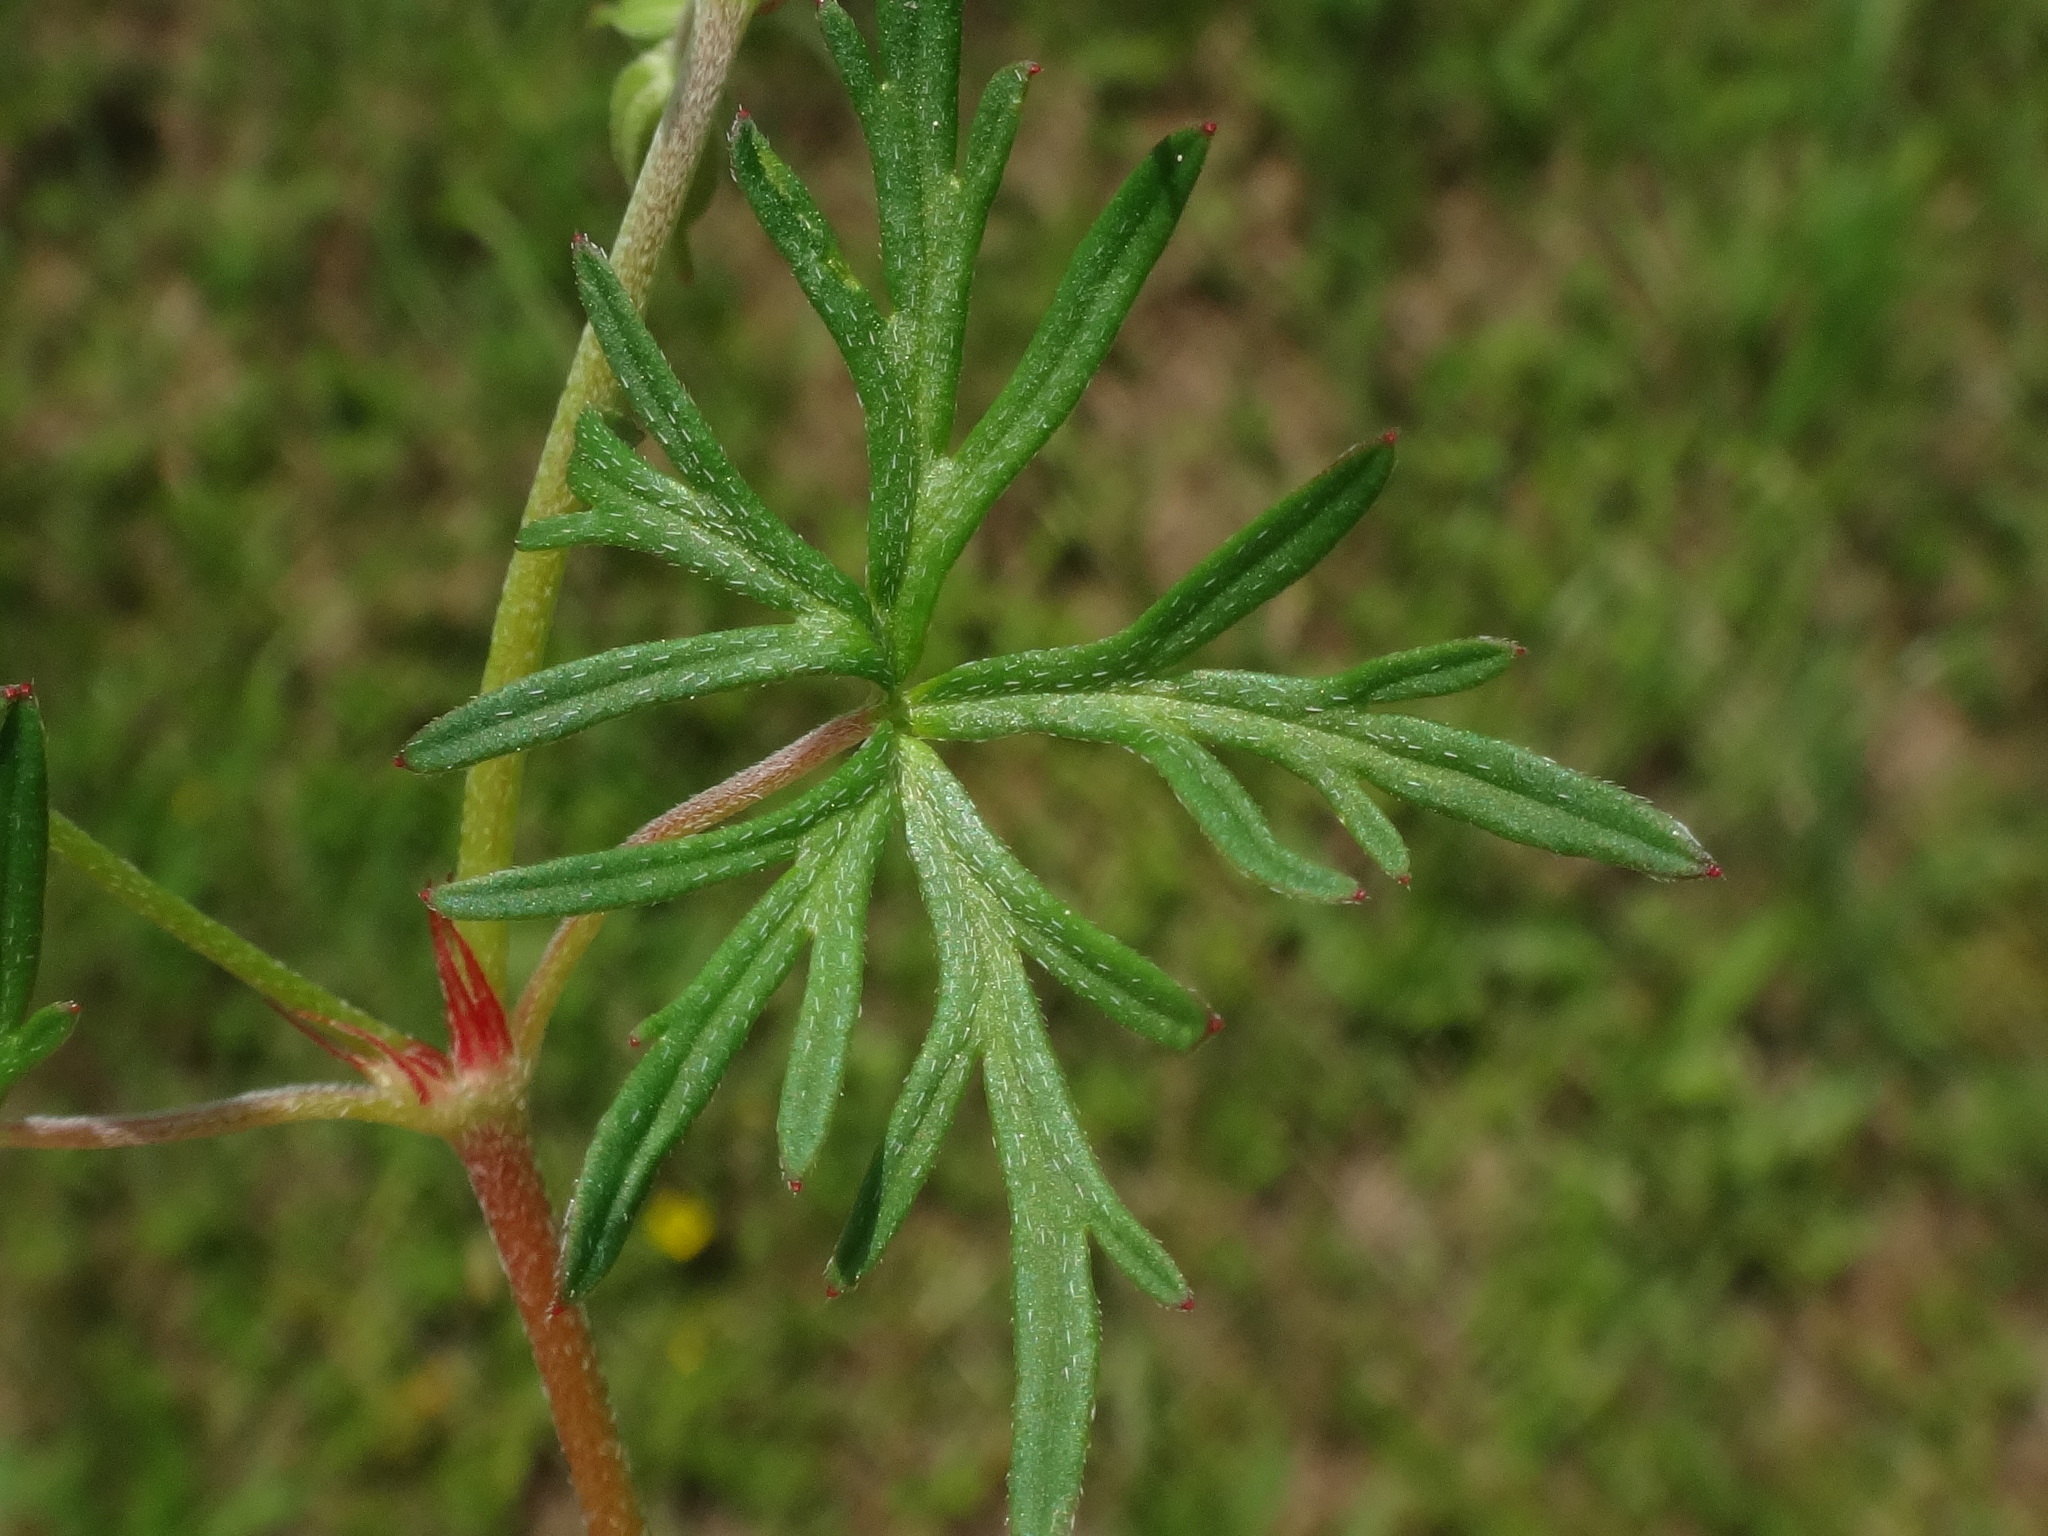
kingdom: Plantae
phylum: Tracheophyta
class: Magnoliopsida
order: Geraniales
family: Geraniaceae
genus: Geranium
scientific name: Geranium columbinum
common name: Long-stalked crane's-bill
